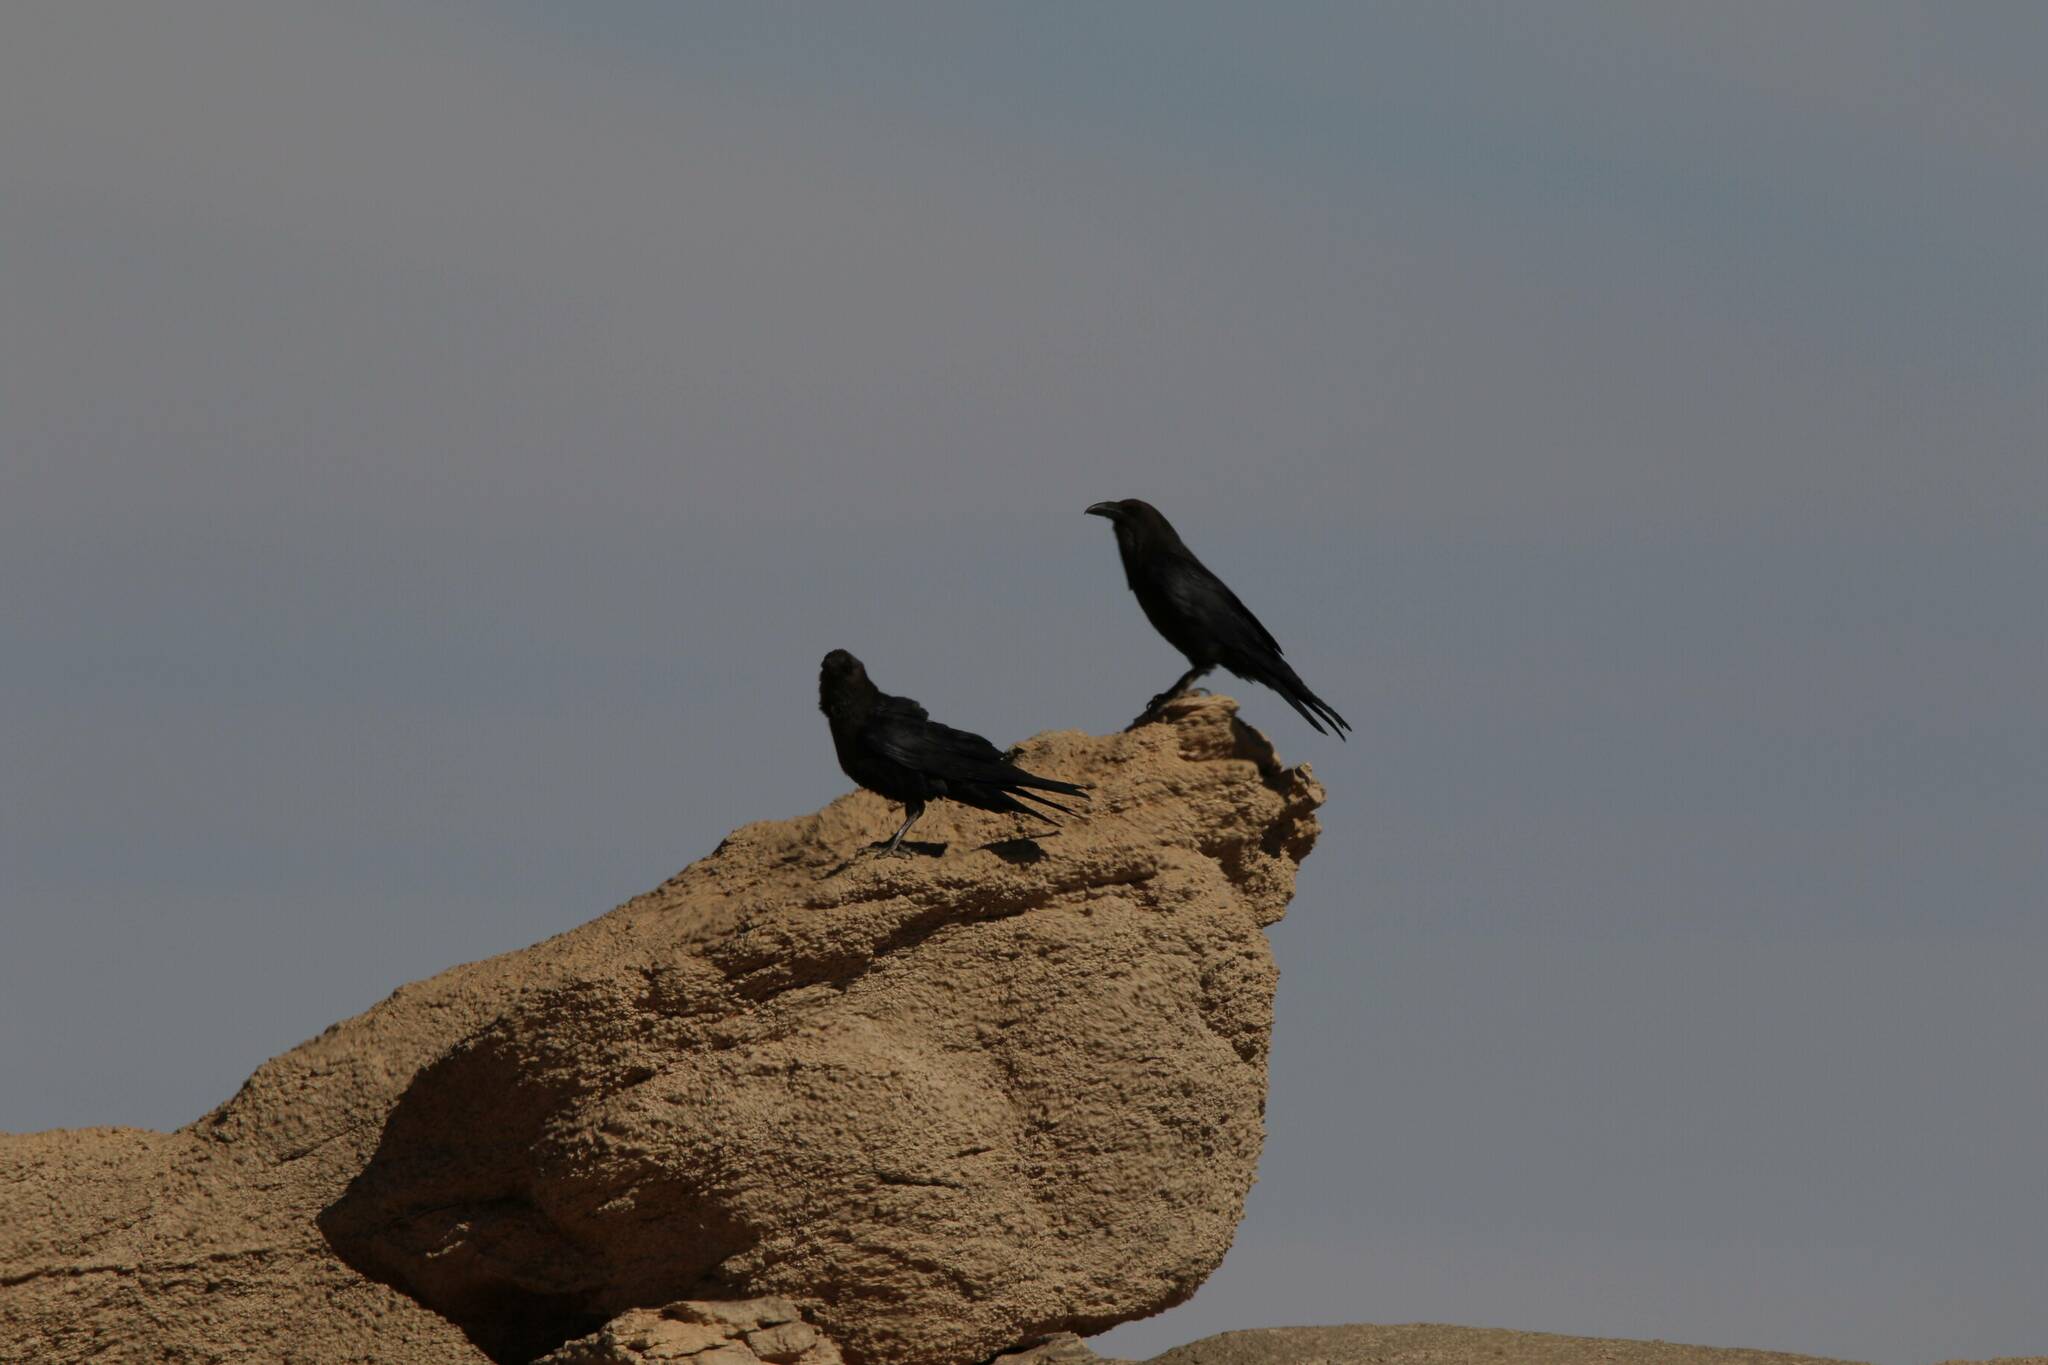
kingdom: Animalia
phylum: Chordata
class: Aves
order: Passeriformes
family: Corvidae
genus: Corvus
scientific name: Corvus ruficollis
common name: Brown-necked raven
